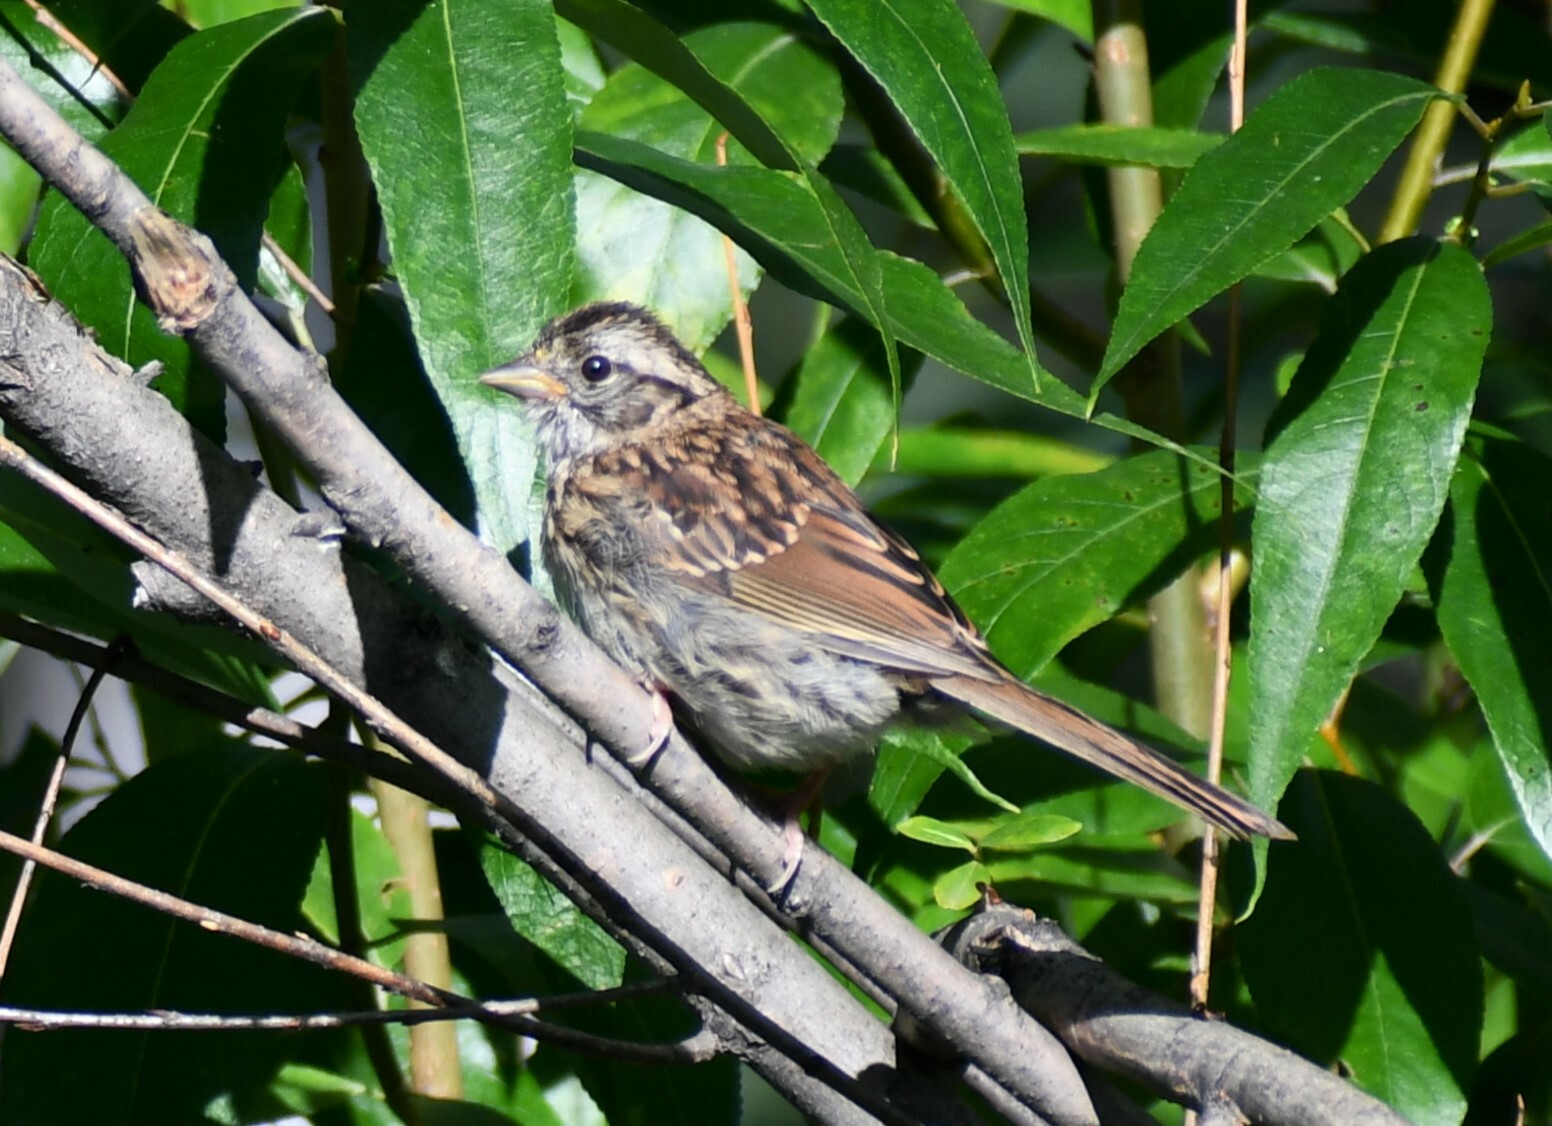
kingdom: Animalia
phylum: Chordata
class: Aves
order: Passeriformes
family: Passerellidae
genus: Zonotrichia
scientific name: Zonotrichia albicollis
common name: White-throated sparrow
